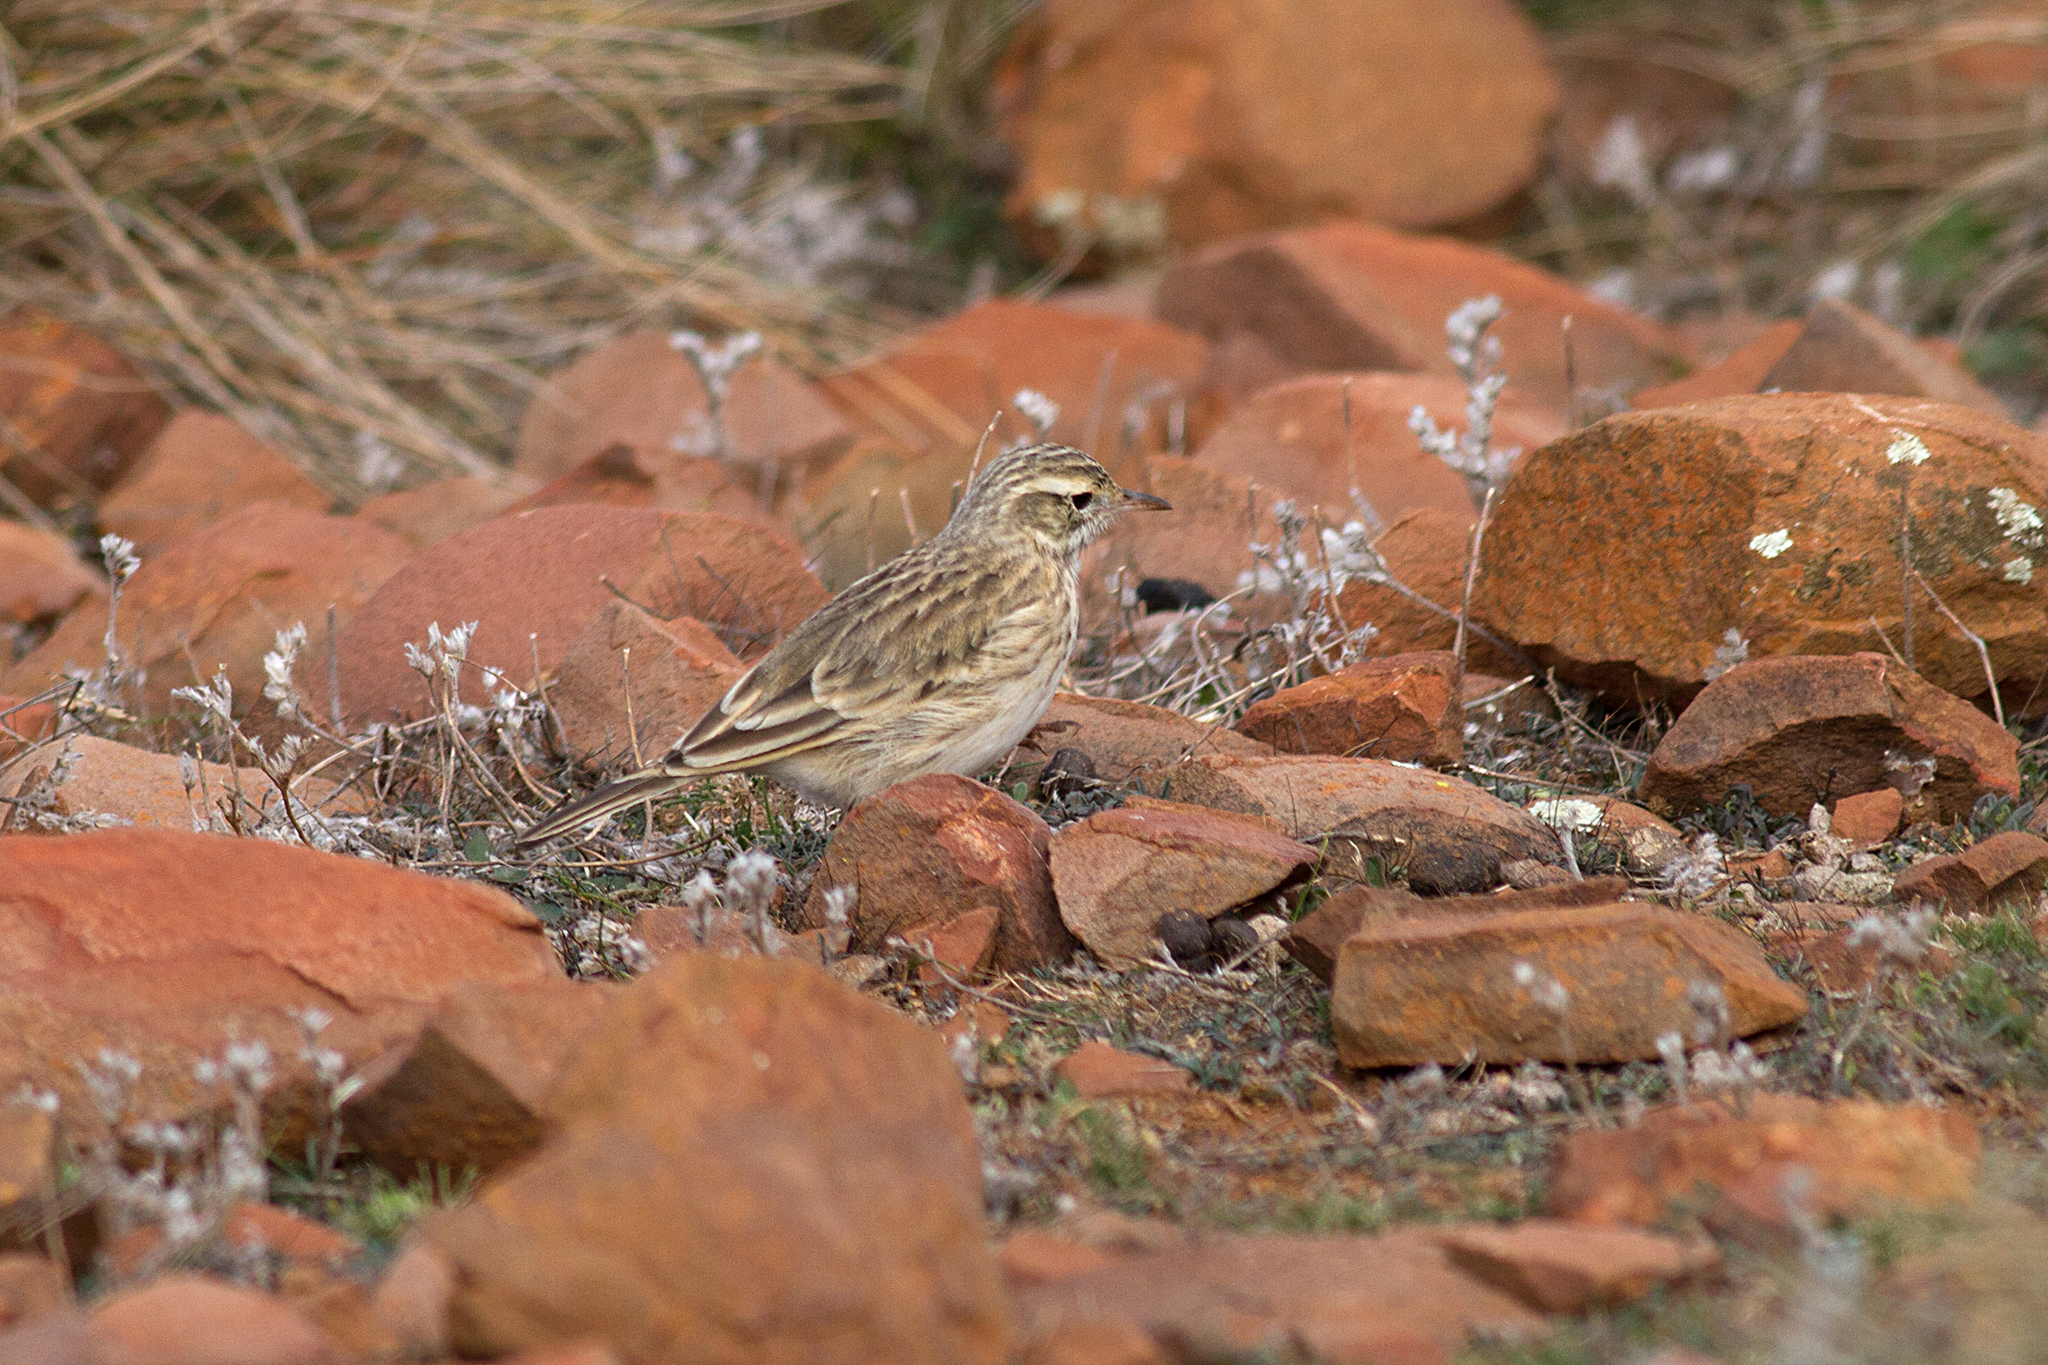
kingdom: Animalia
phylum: Chordata
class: Aves
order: Passeriformes
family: Motacillidae
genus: Anthus
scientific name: Anthus australis
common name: Australian pipit
